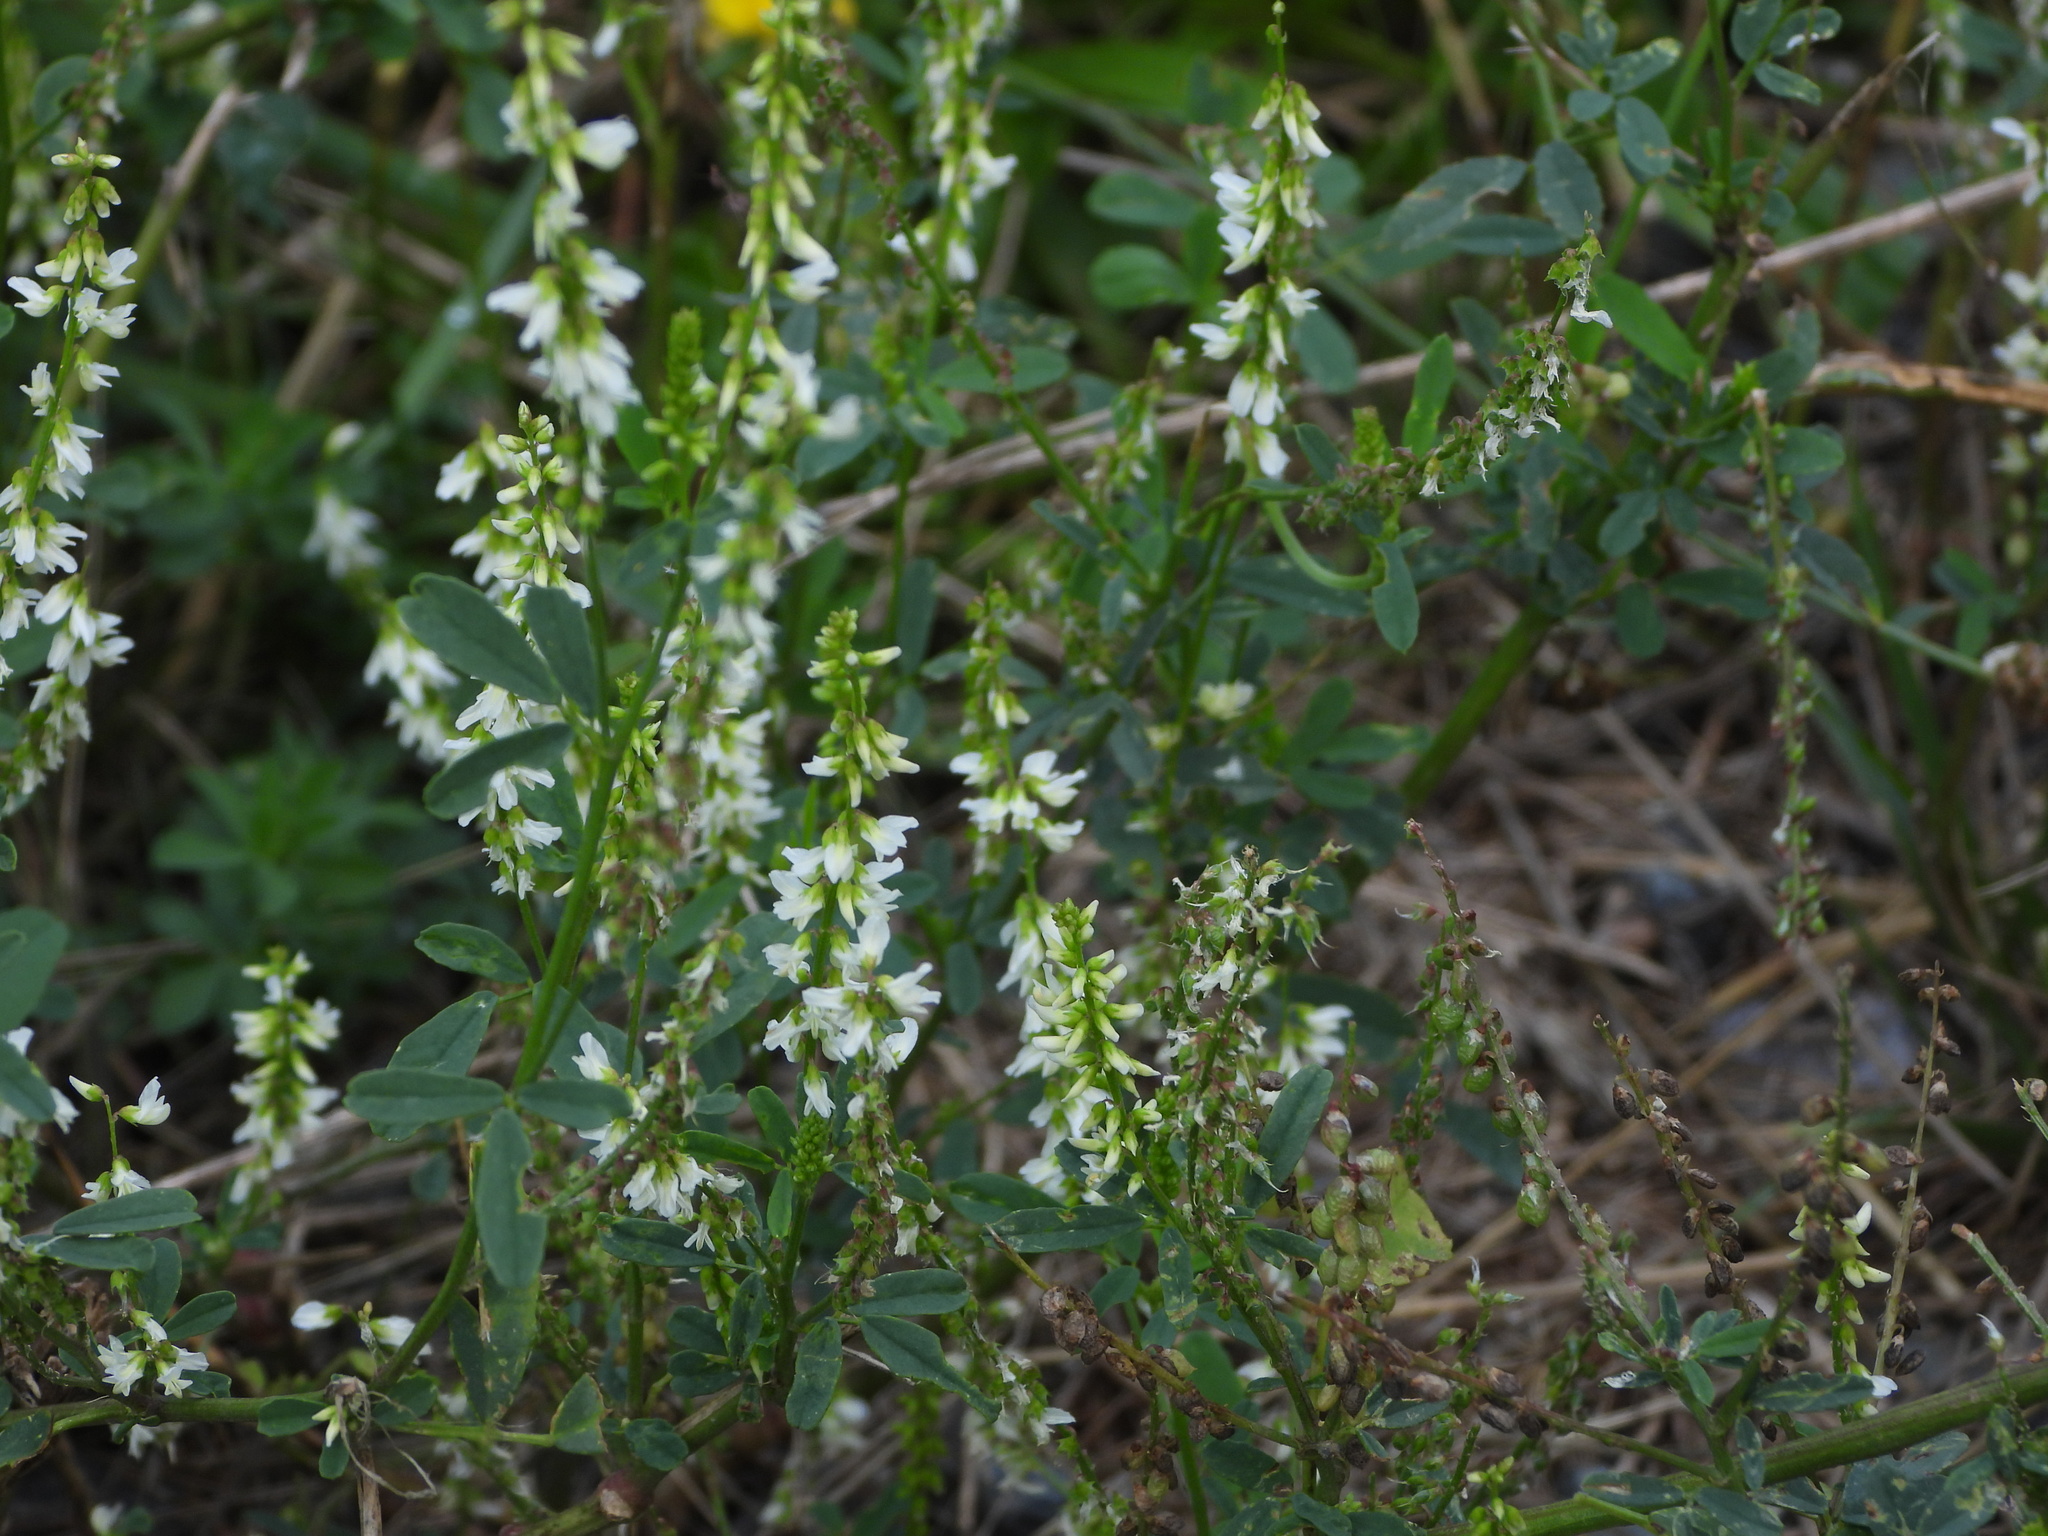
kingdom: Plantae
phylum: Tracheophyta
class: Magnoliopsida
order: Fabales
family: Fabaceae
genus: Melilotus
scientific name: Melilotus albus
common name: White melilot
